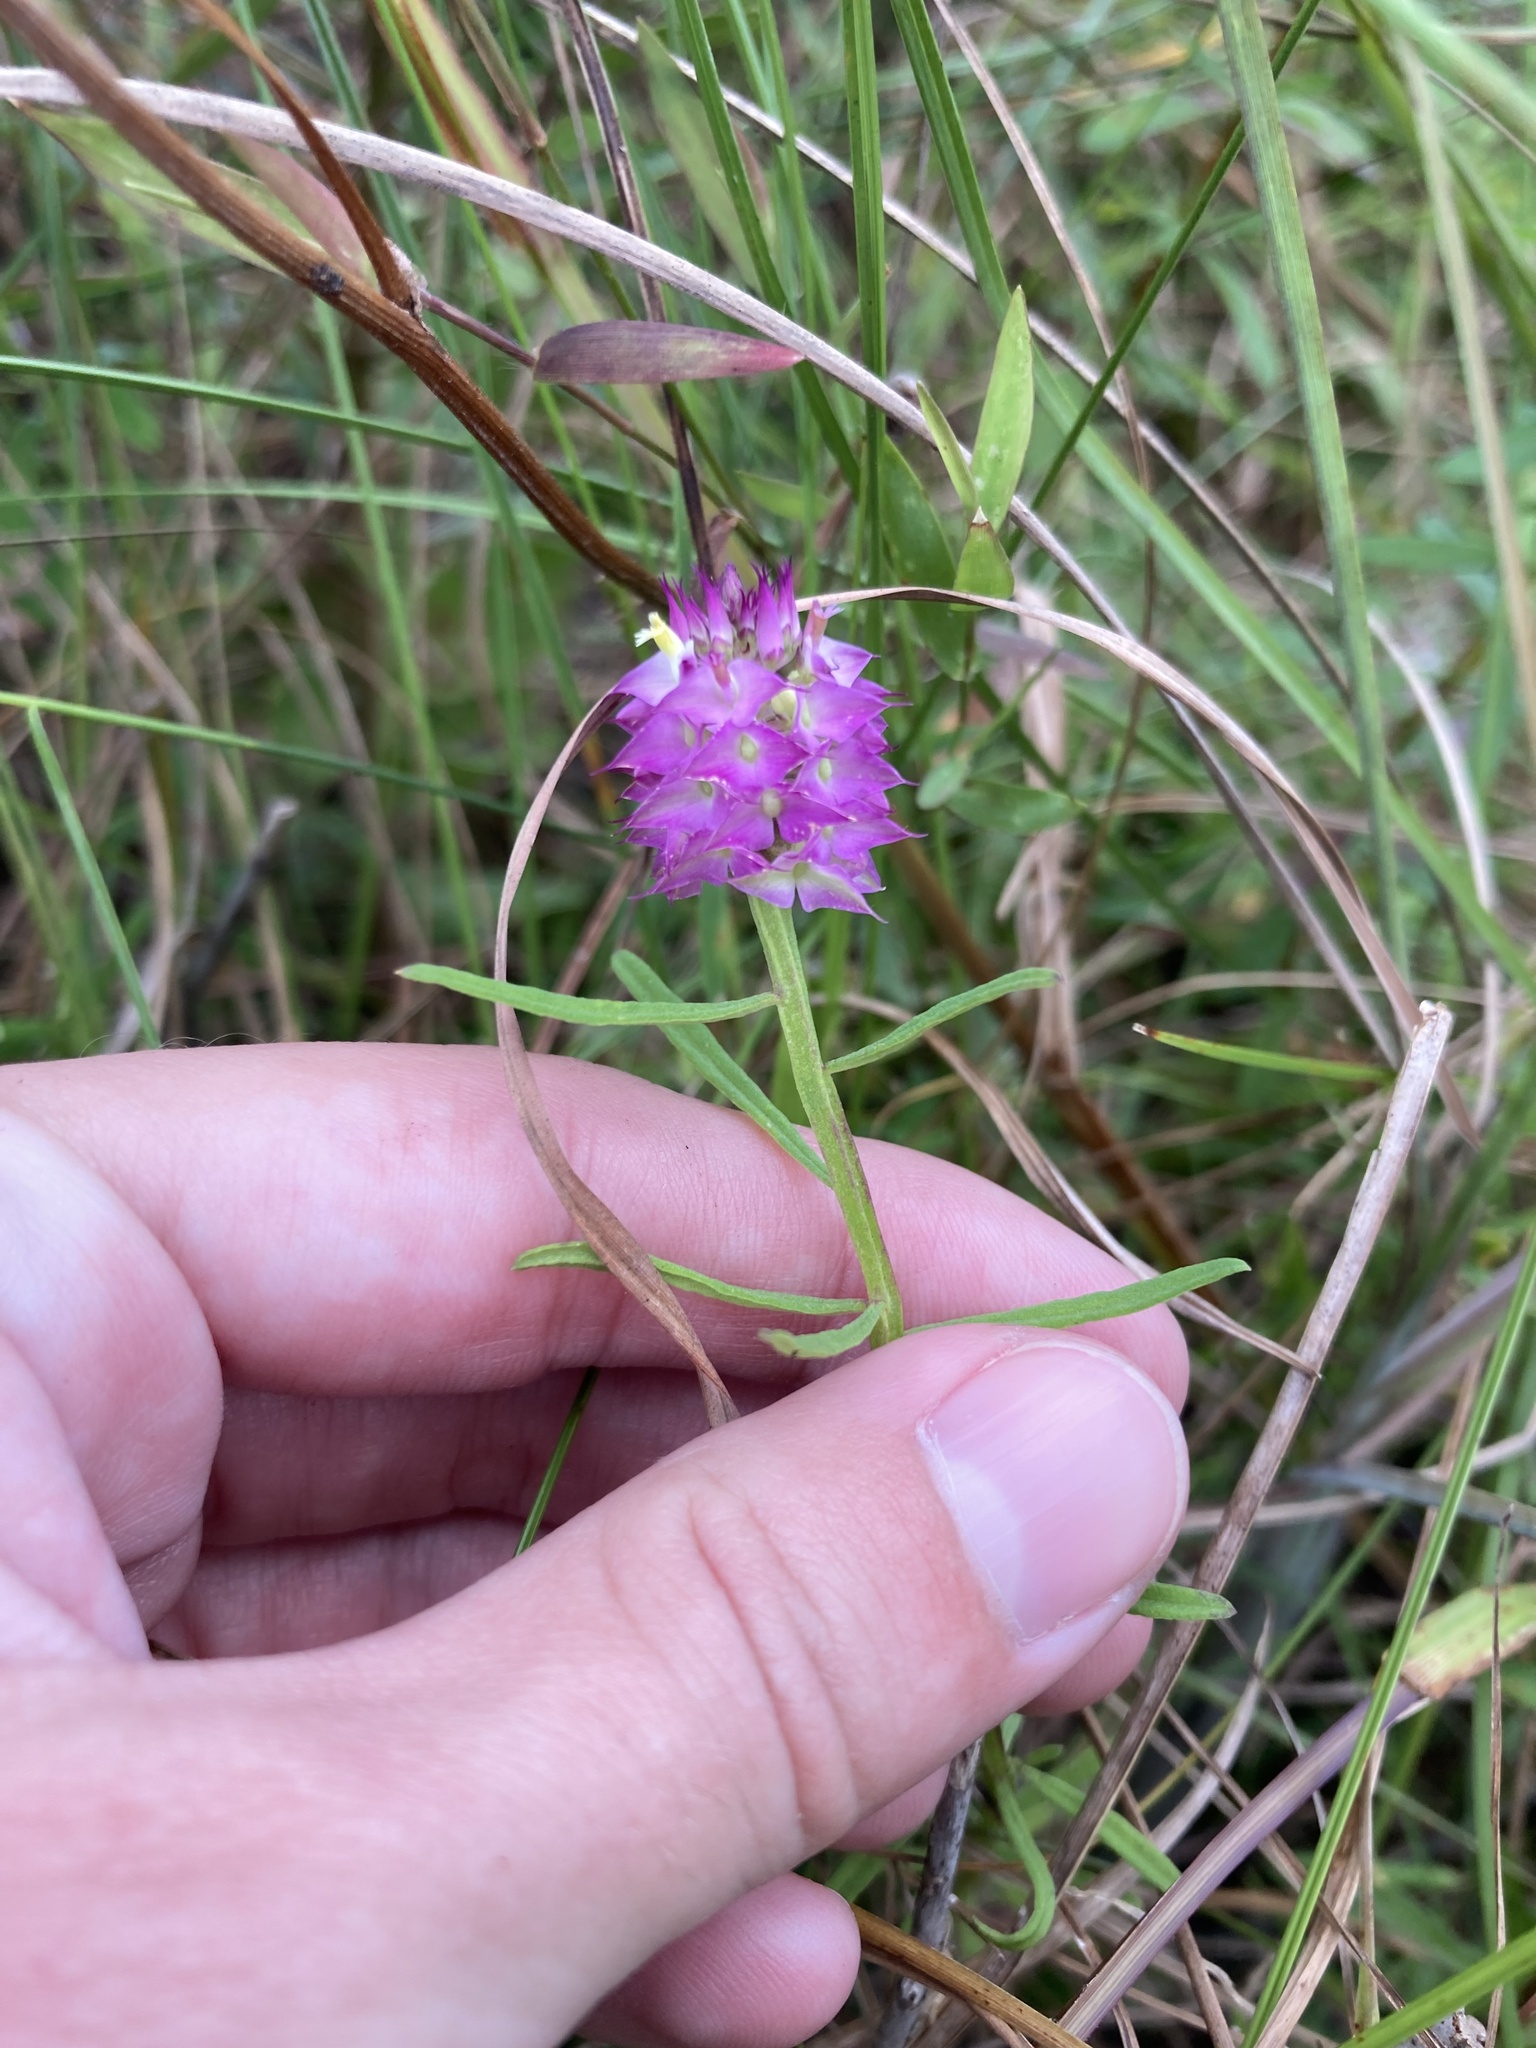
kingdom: Plantae
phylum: Tracheophyta
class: Magnoliopsida
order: Fabales
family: Polygalaceae
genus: Polygala
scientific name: Polygala cruciata
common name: Drumheads
